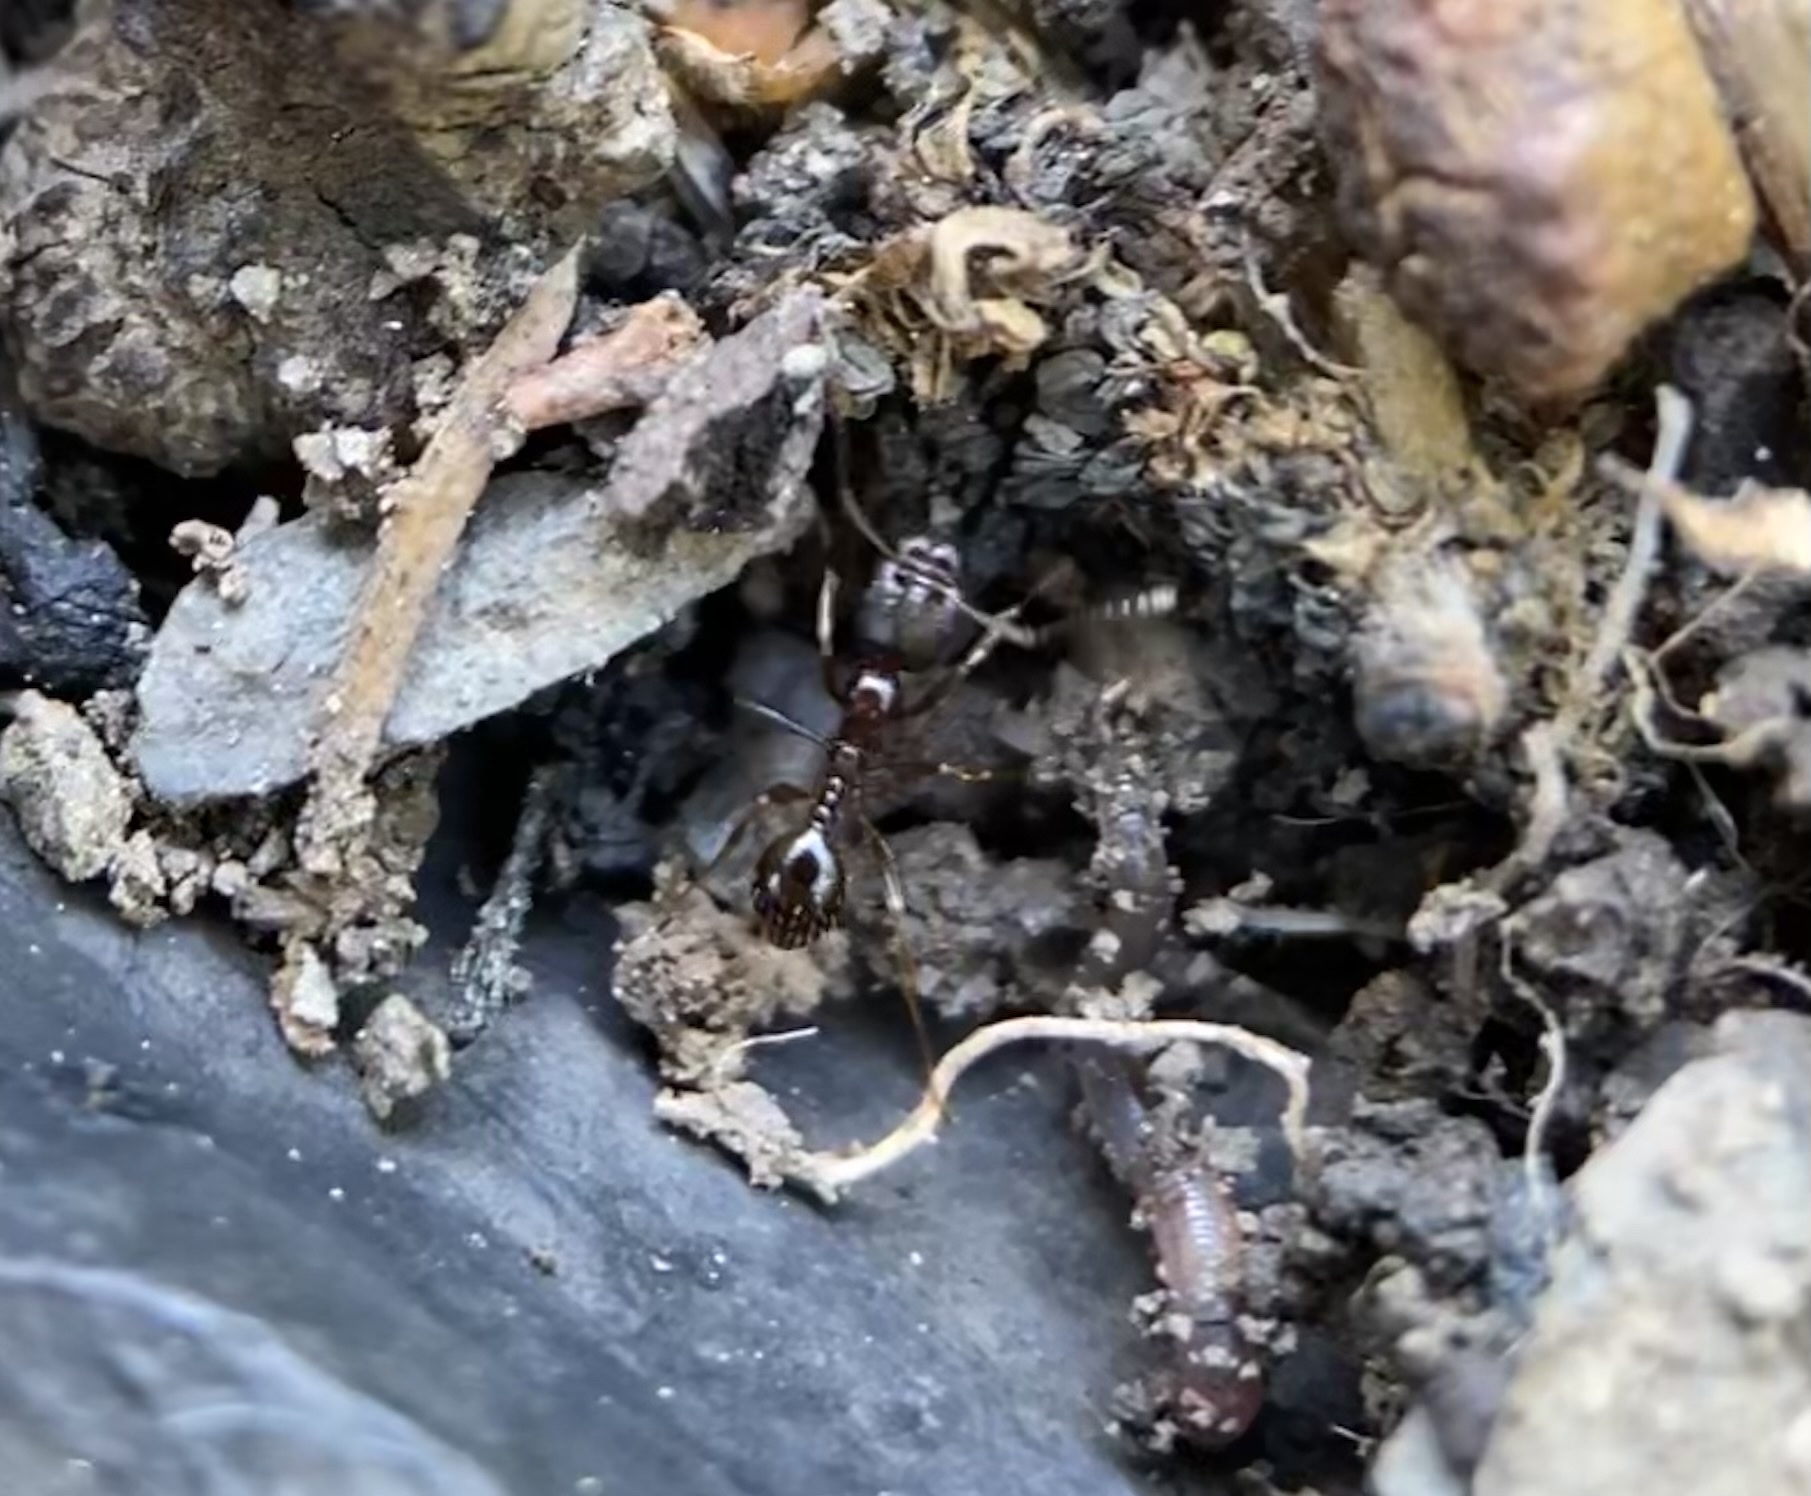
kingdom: Animalia
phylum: Arthropoda
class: Insecta
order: Hymenoptera
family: Formicidae
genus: Aphaenogaster
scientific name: Aphaenogaster occidentalis
